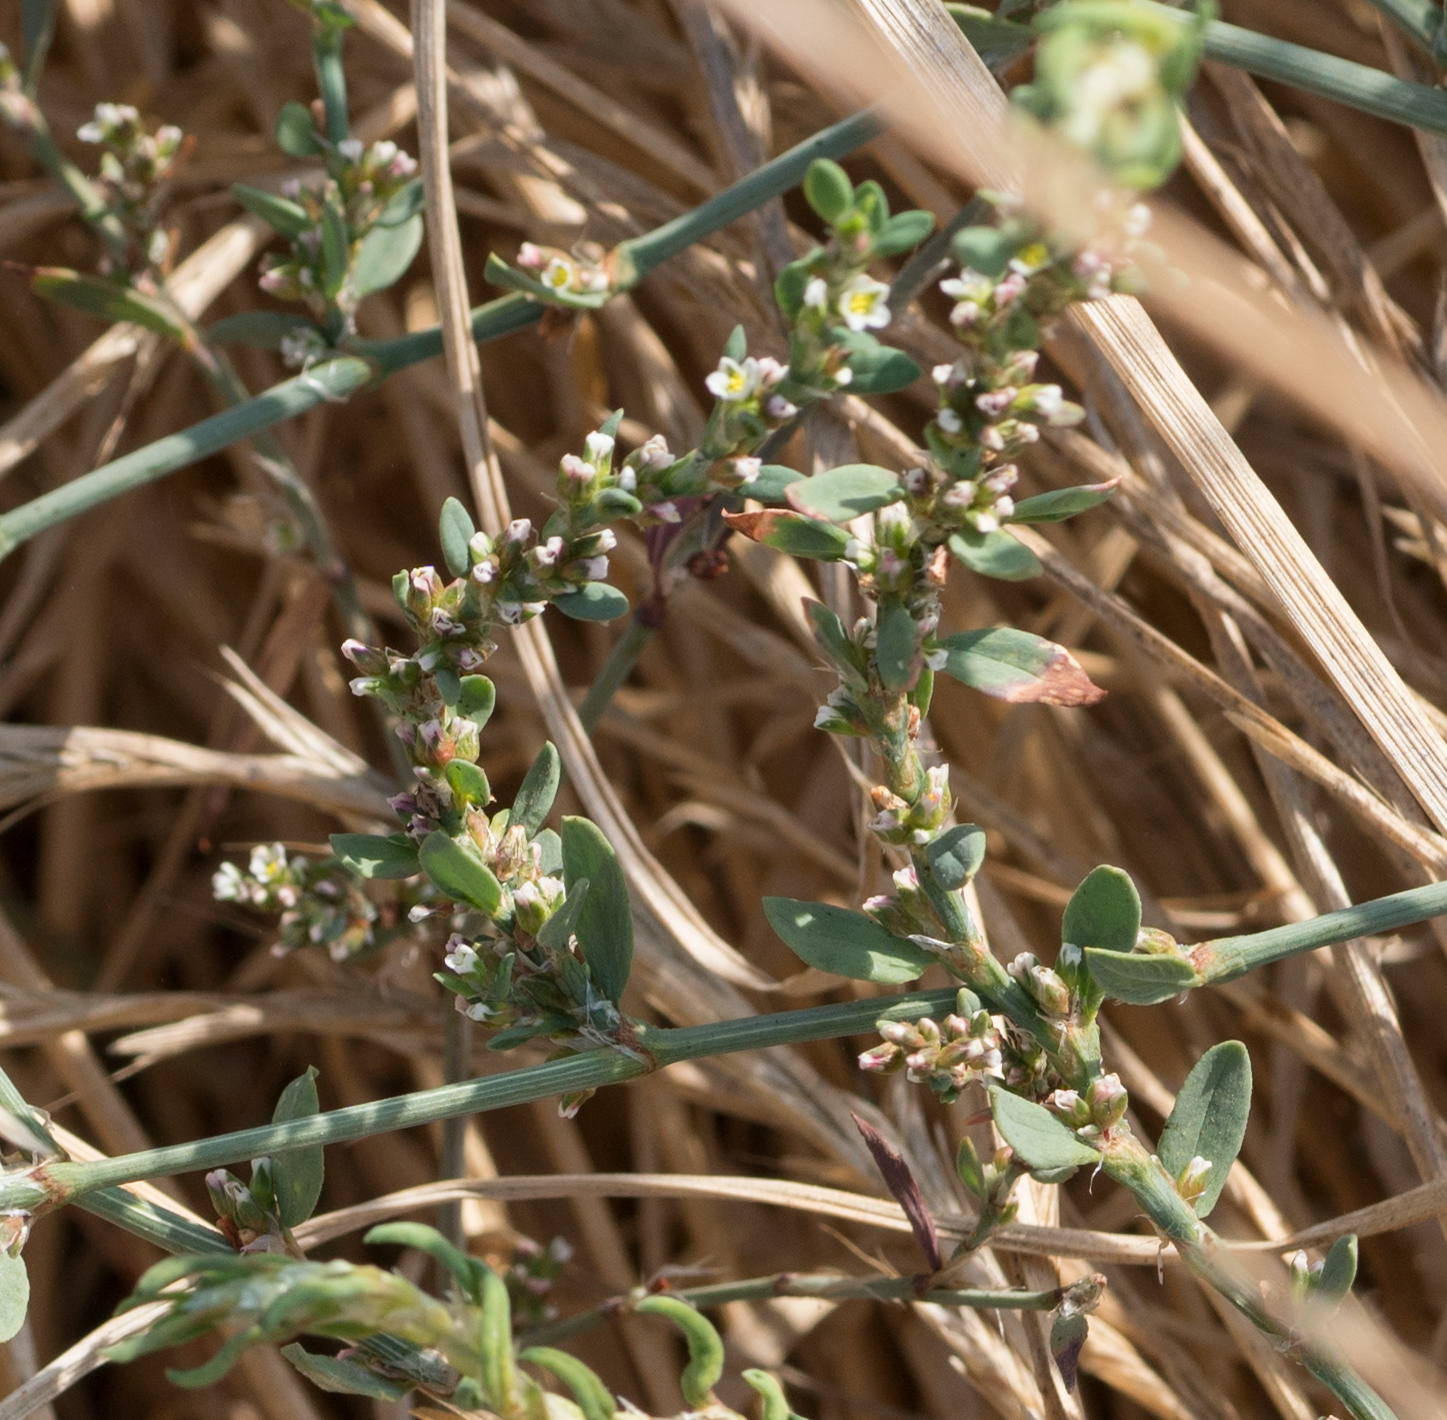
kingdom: Plantae
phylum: Tracheophyta
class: Magnoliopsida
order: Caryophyllales
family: Polygonaceae
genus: Polygonum
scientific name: Polygonum aviculare
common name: Prostrate knotweed
